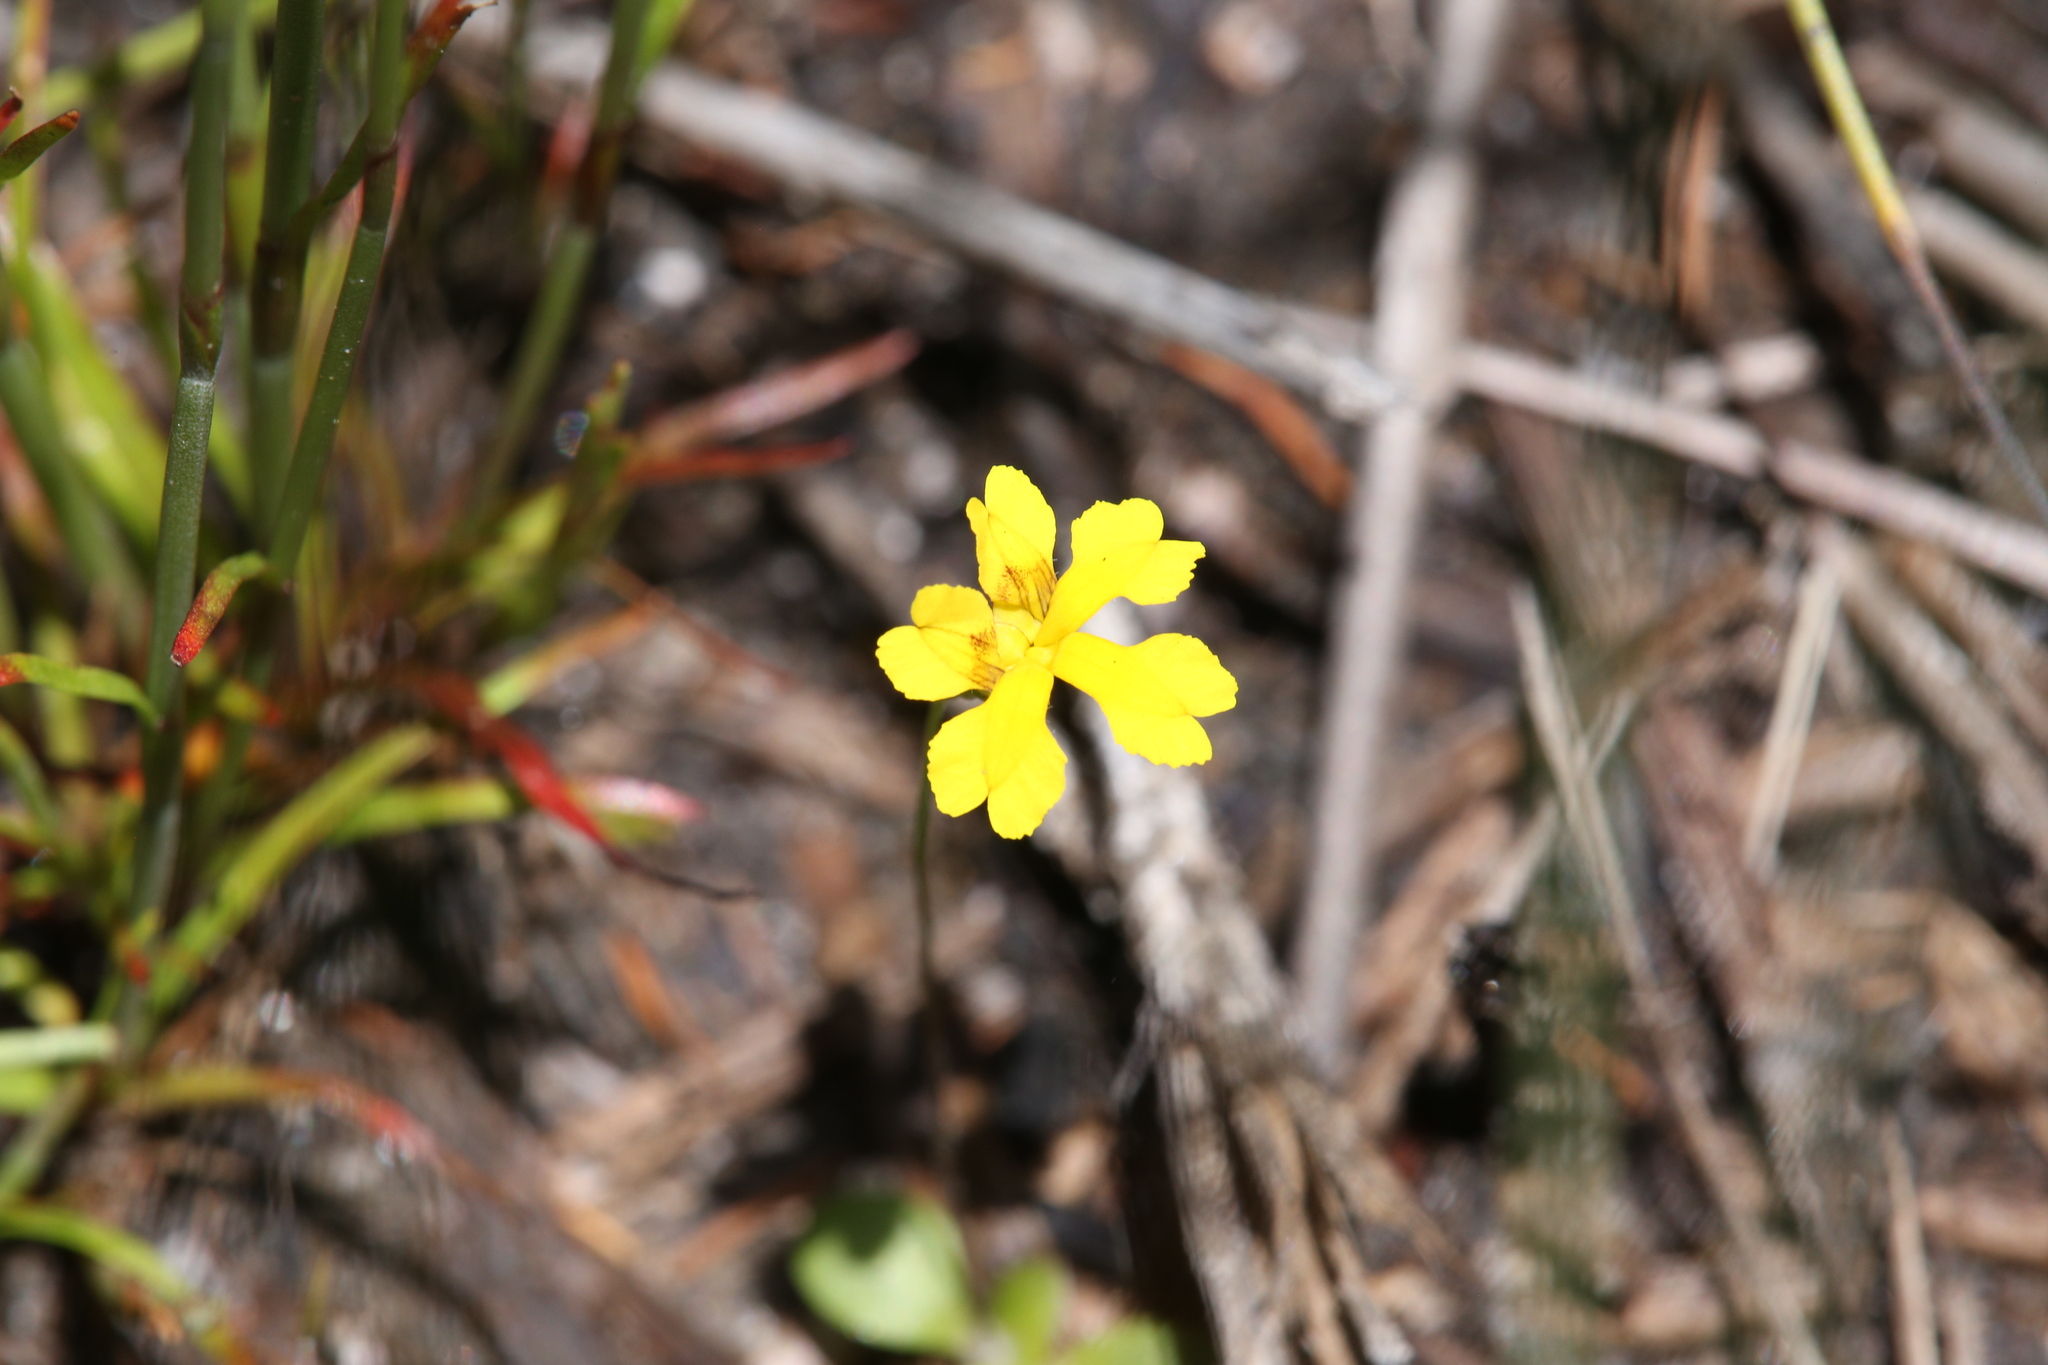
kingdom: Plantae
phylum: Tracheophyta
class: Magnoliopsida
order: Asterales
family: Goodeniaceae
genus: Goodenia
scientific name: Goodenia pusilla
